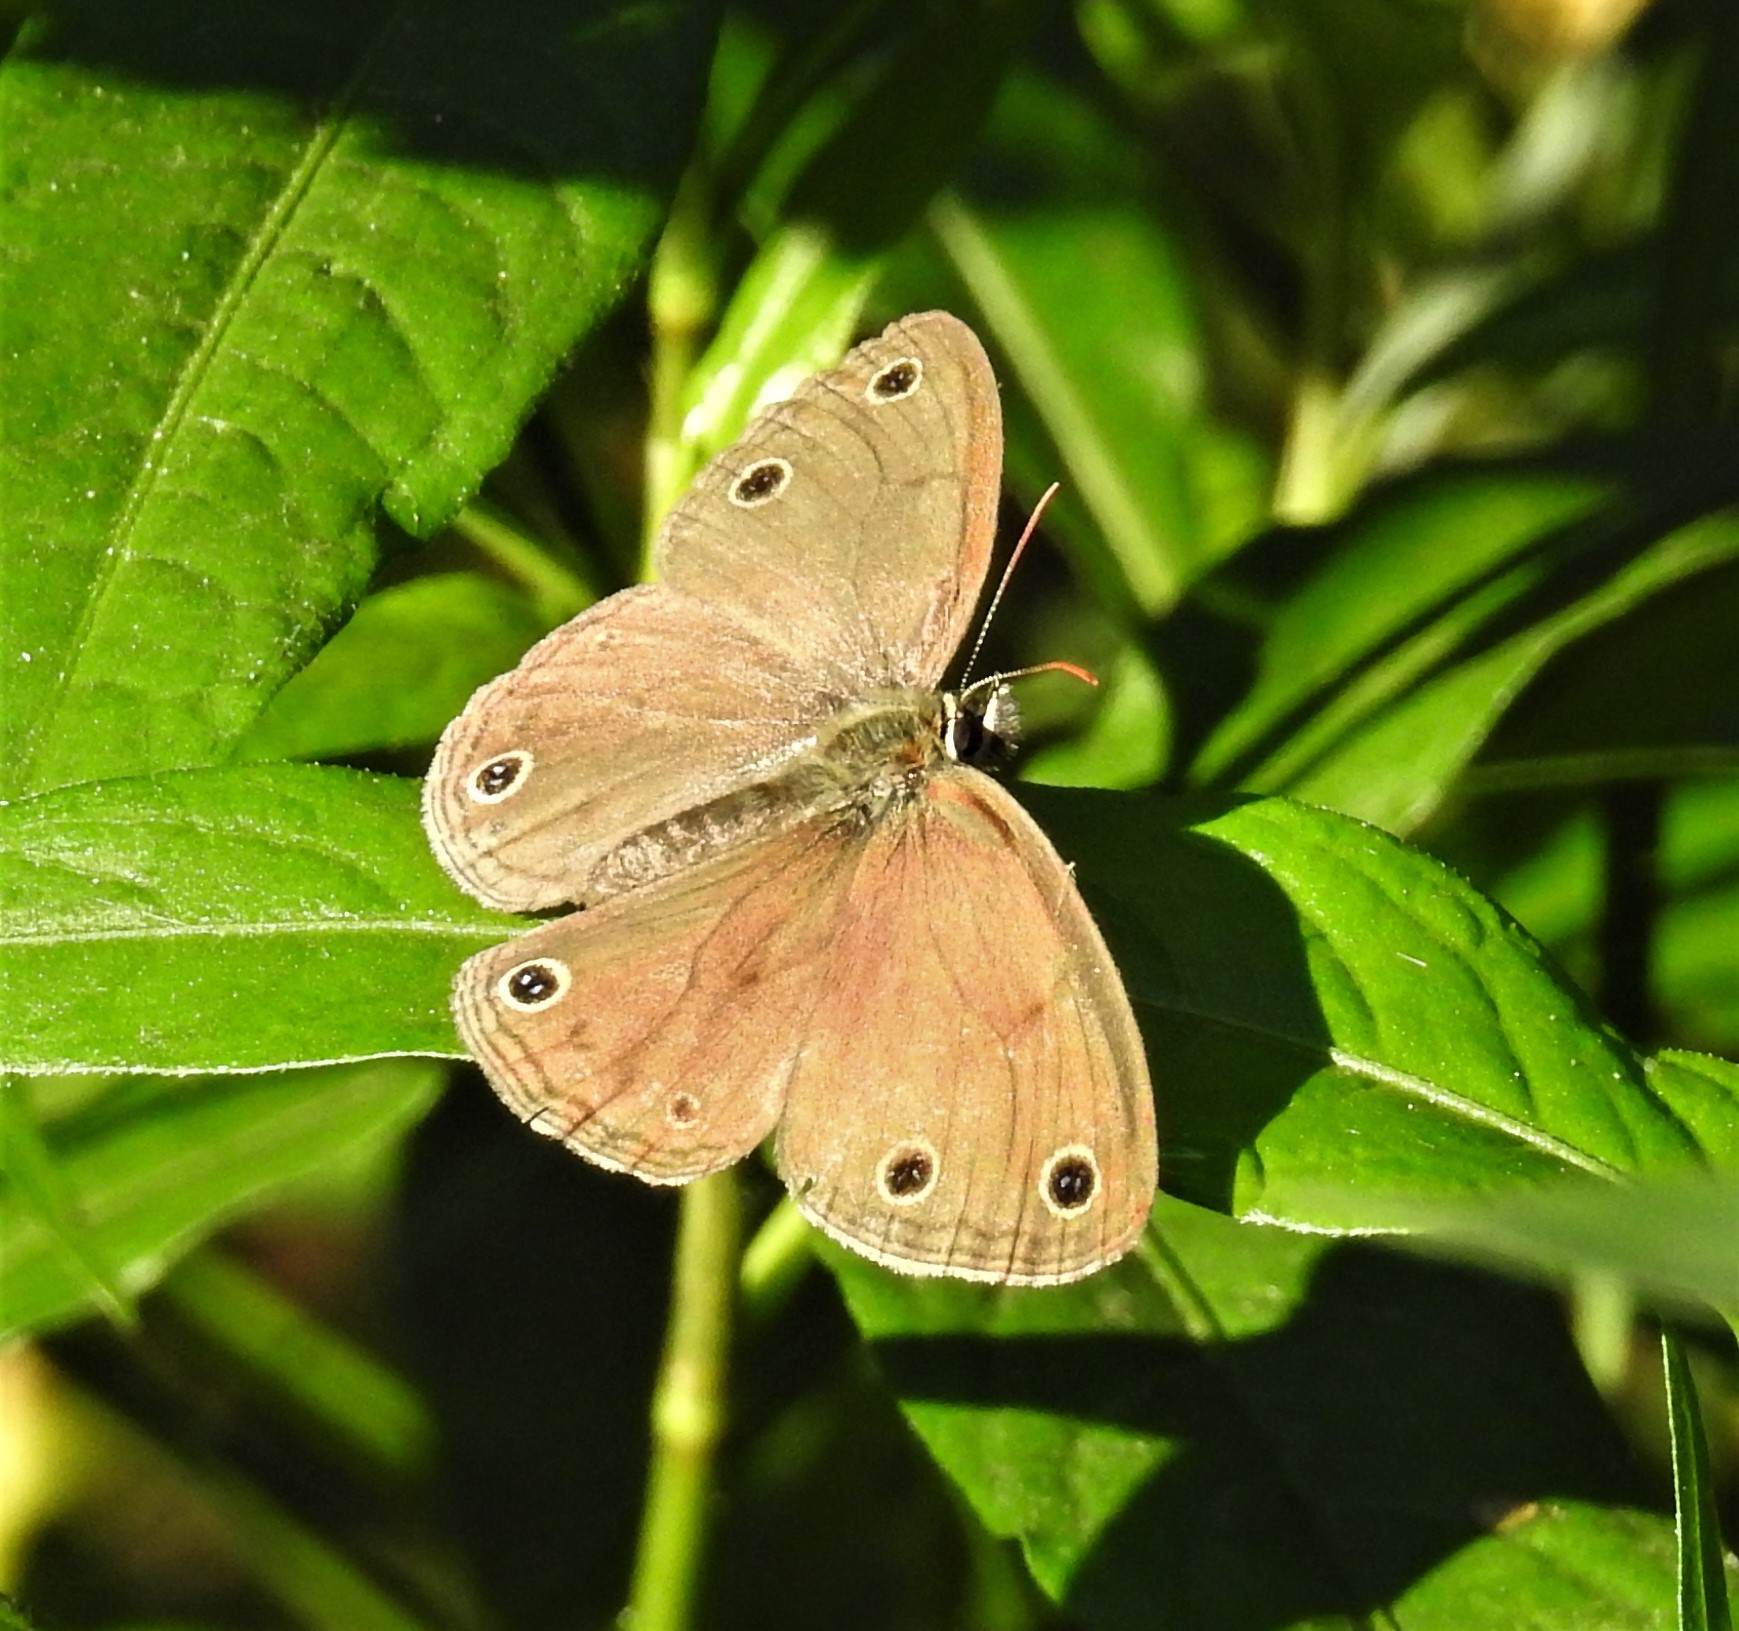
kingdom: Animalia
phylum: Arthropoda
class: Insecta
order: Lepidoptera
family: Nymphalidae
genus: Euptychia
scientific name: Euptychia cymela
